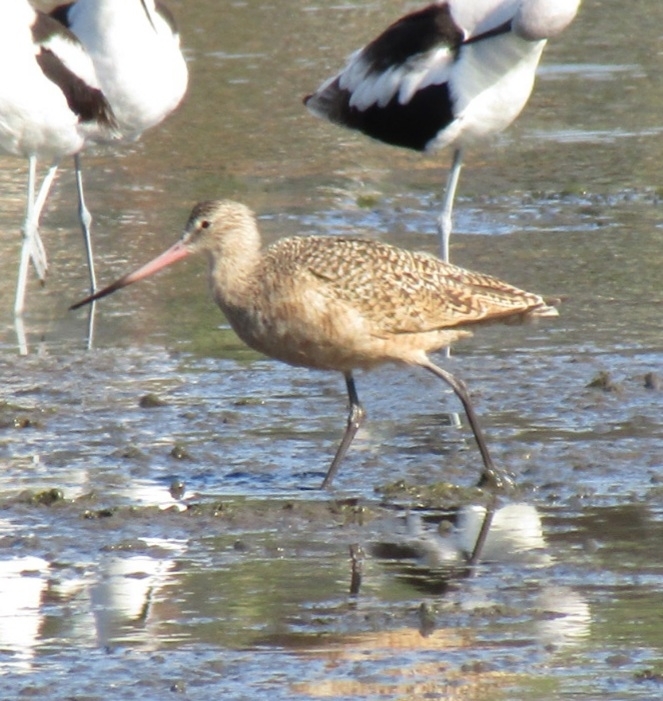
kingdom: Animalia
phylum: Chordata
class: Aves
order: Charadriiformes
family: Scolopacidae
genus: Limosa
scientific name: Limosa fedoa
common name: Marbled godwit
